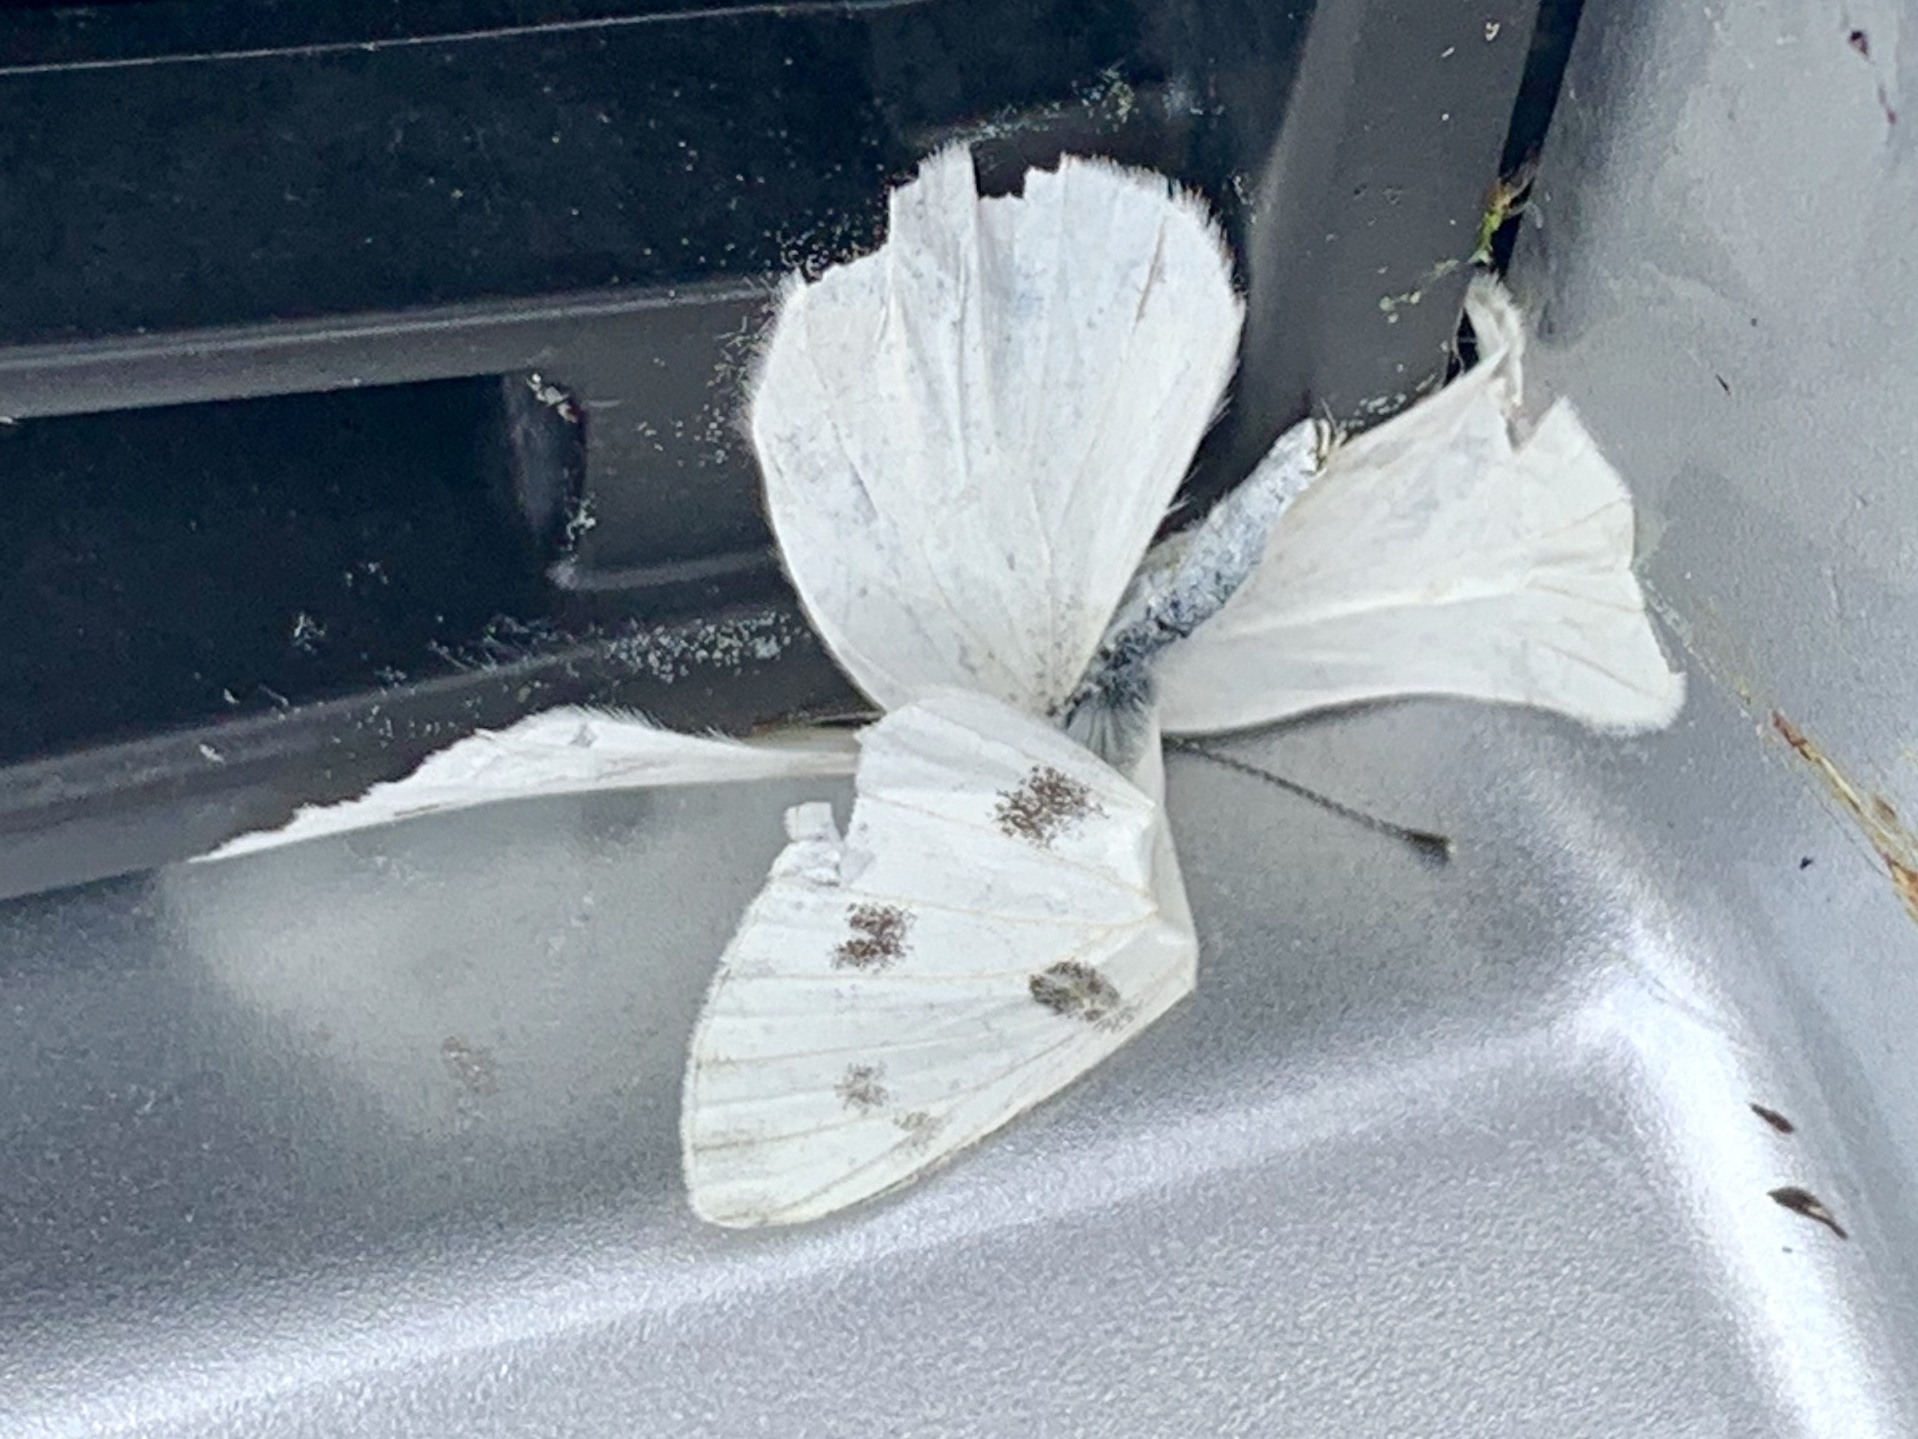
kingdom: Animalia
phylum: Arthropoda
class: Insecta
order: Lepidoptera
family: Pieridae
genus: Pontia
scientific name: Pontia protodice
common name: Checkered white
